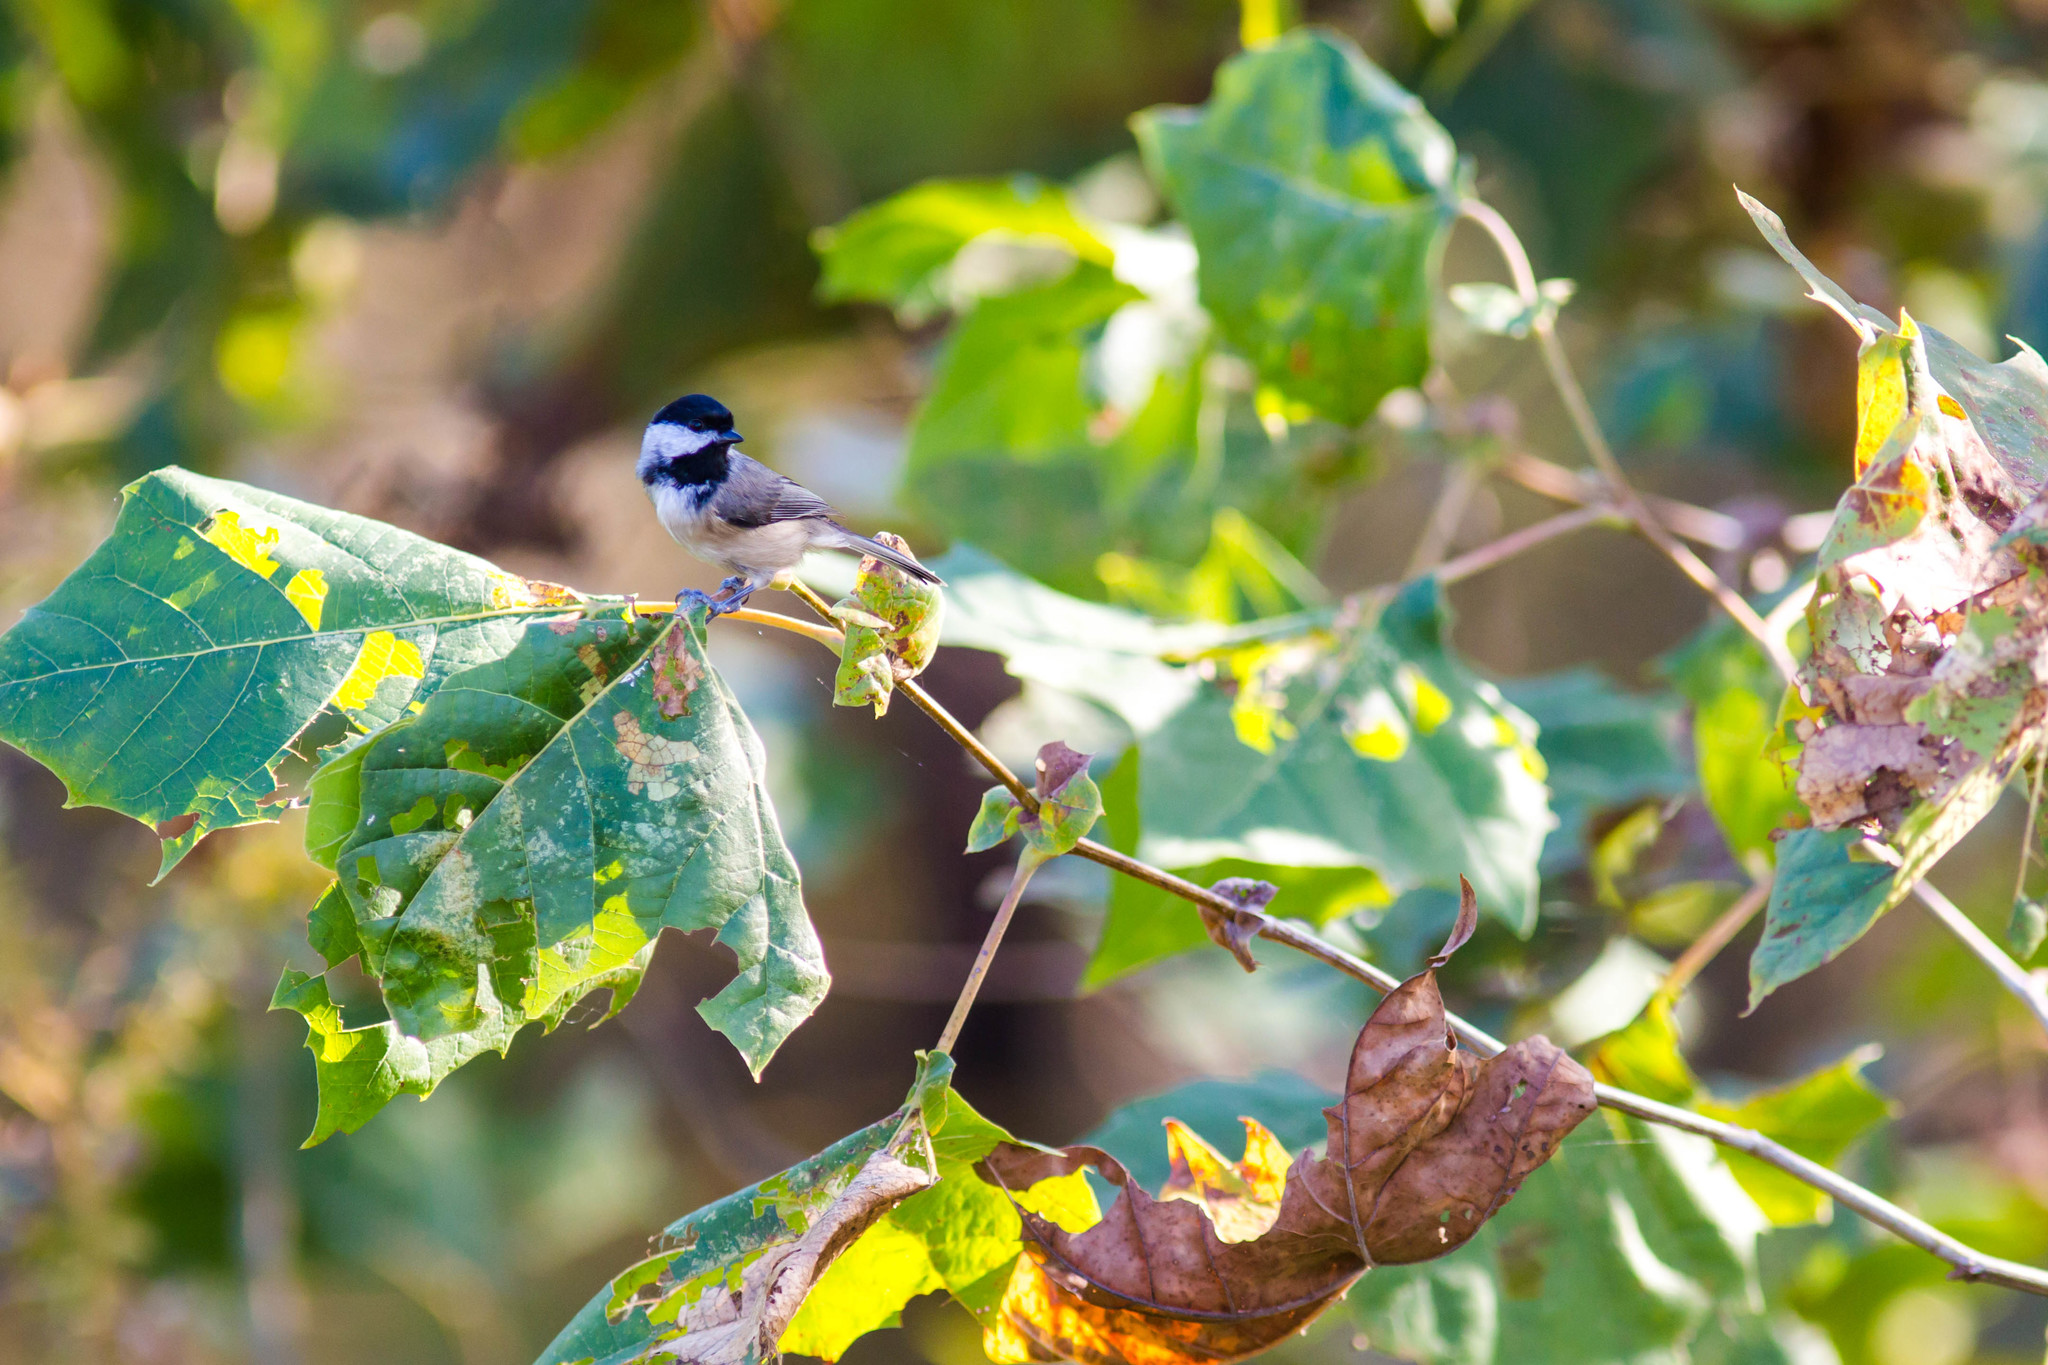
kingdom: Animalia
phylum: Chordata
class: Aves
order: Passeriformes
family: Paridae
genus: Poecile
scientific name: Poecile carolinensis
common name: Carolina chickadee
